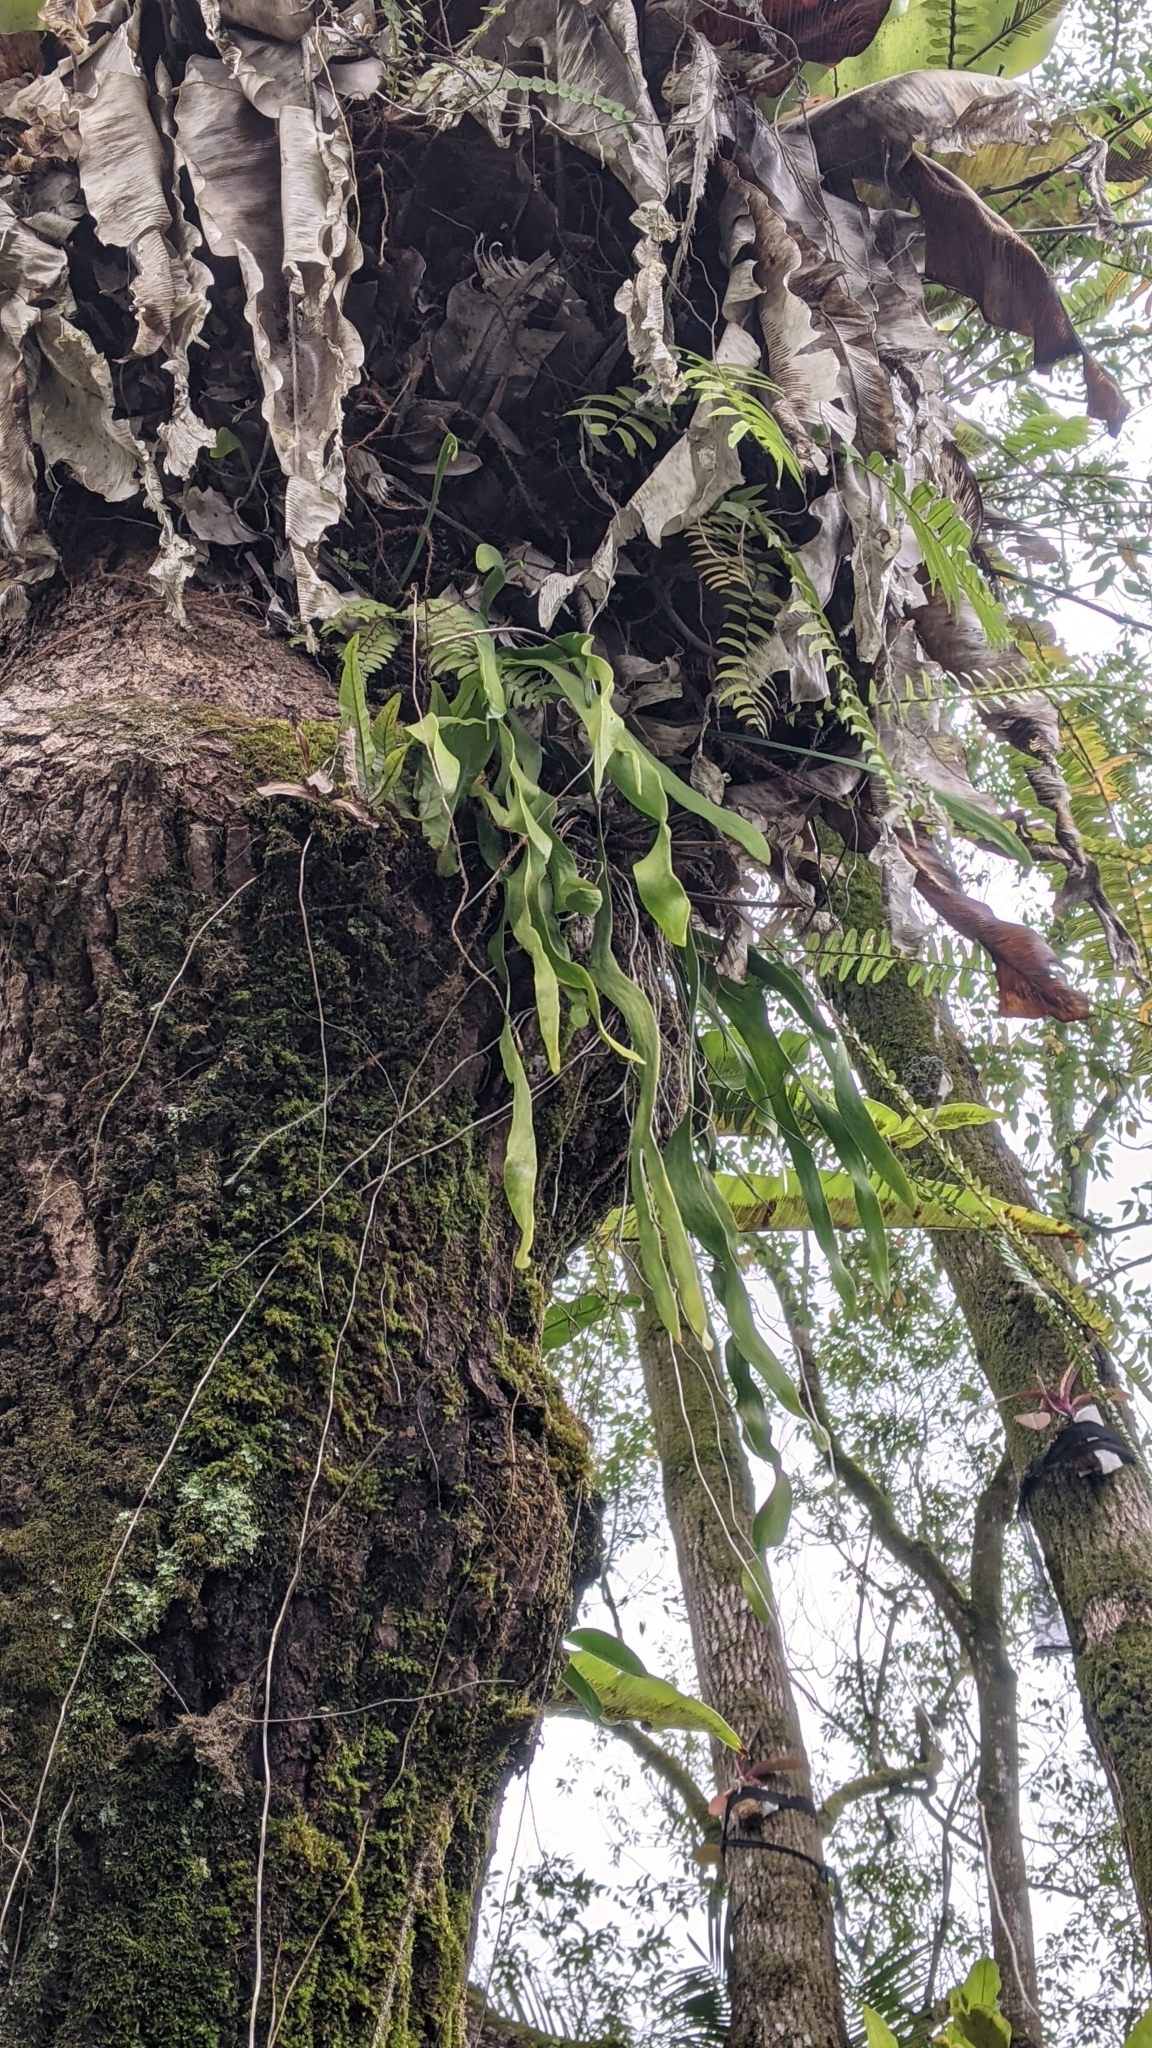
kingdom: Plantae
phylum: Tracheophyta
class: Polypodiopsida
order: Ophioglossales
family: Ophioglossaceae
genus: Ophioderma
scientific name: Ophioderma pendulum
